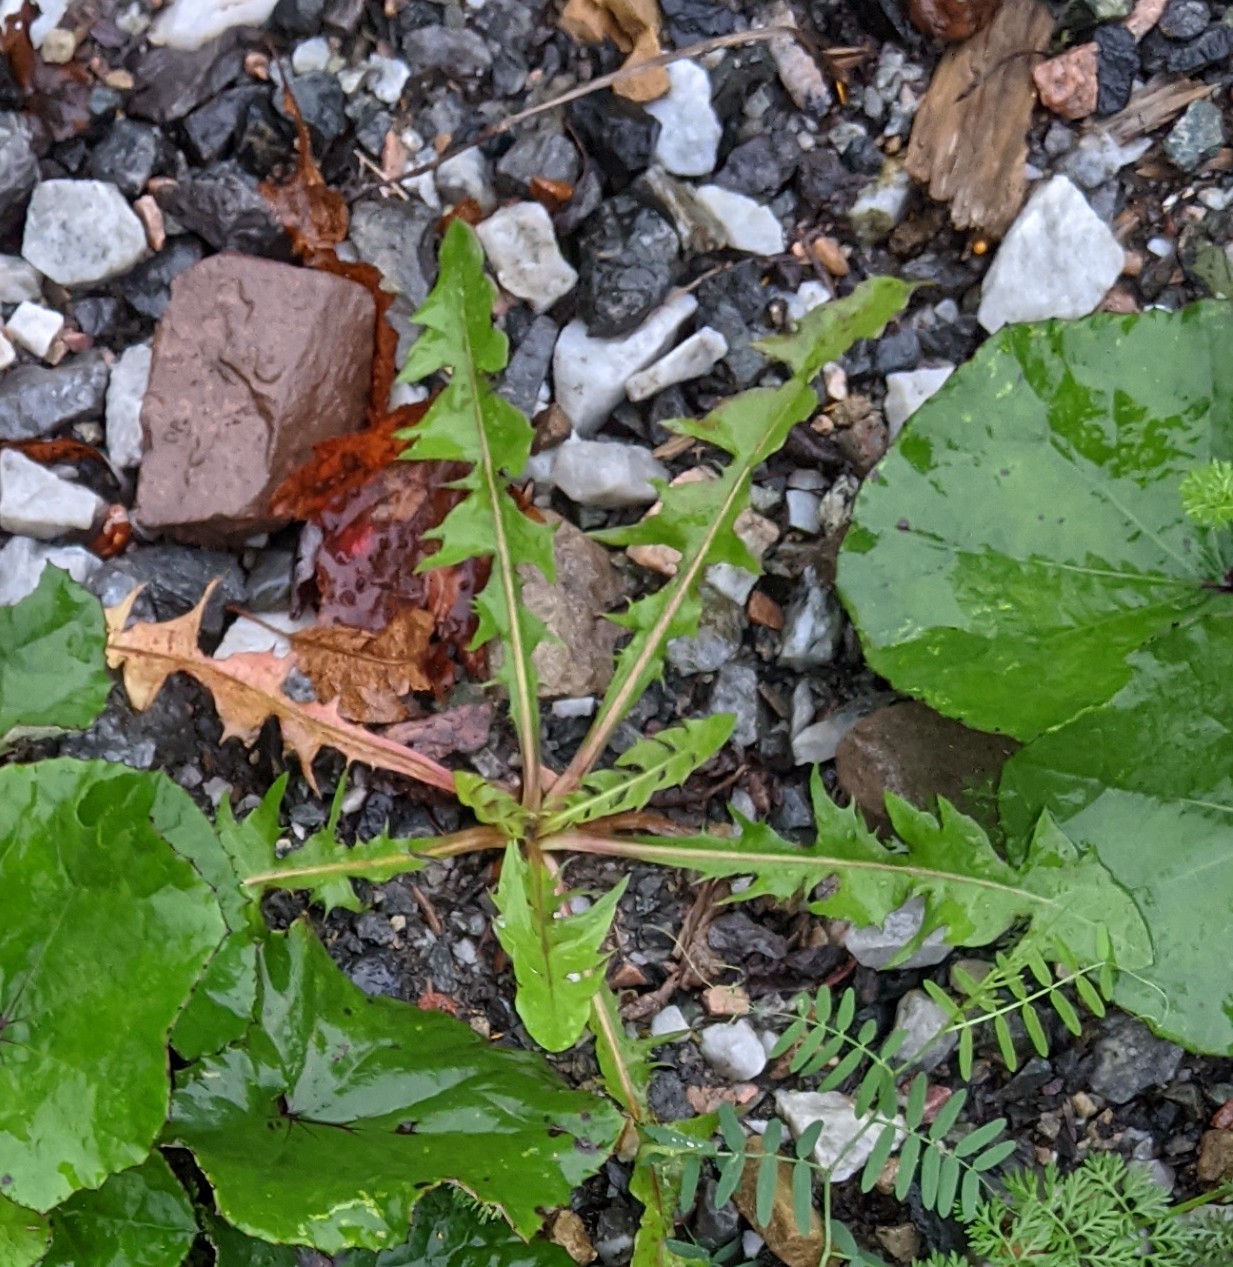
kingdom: Plantae
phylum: Tracheophyta
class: Magnoliopsida
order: Asterales
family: Asteraceae
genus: Taraxacum
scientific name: Taraxacum officinale
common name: Common dandelion
